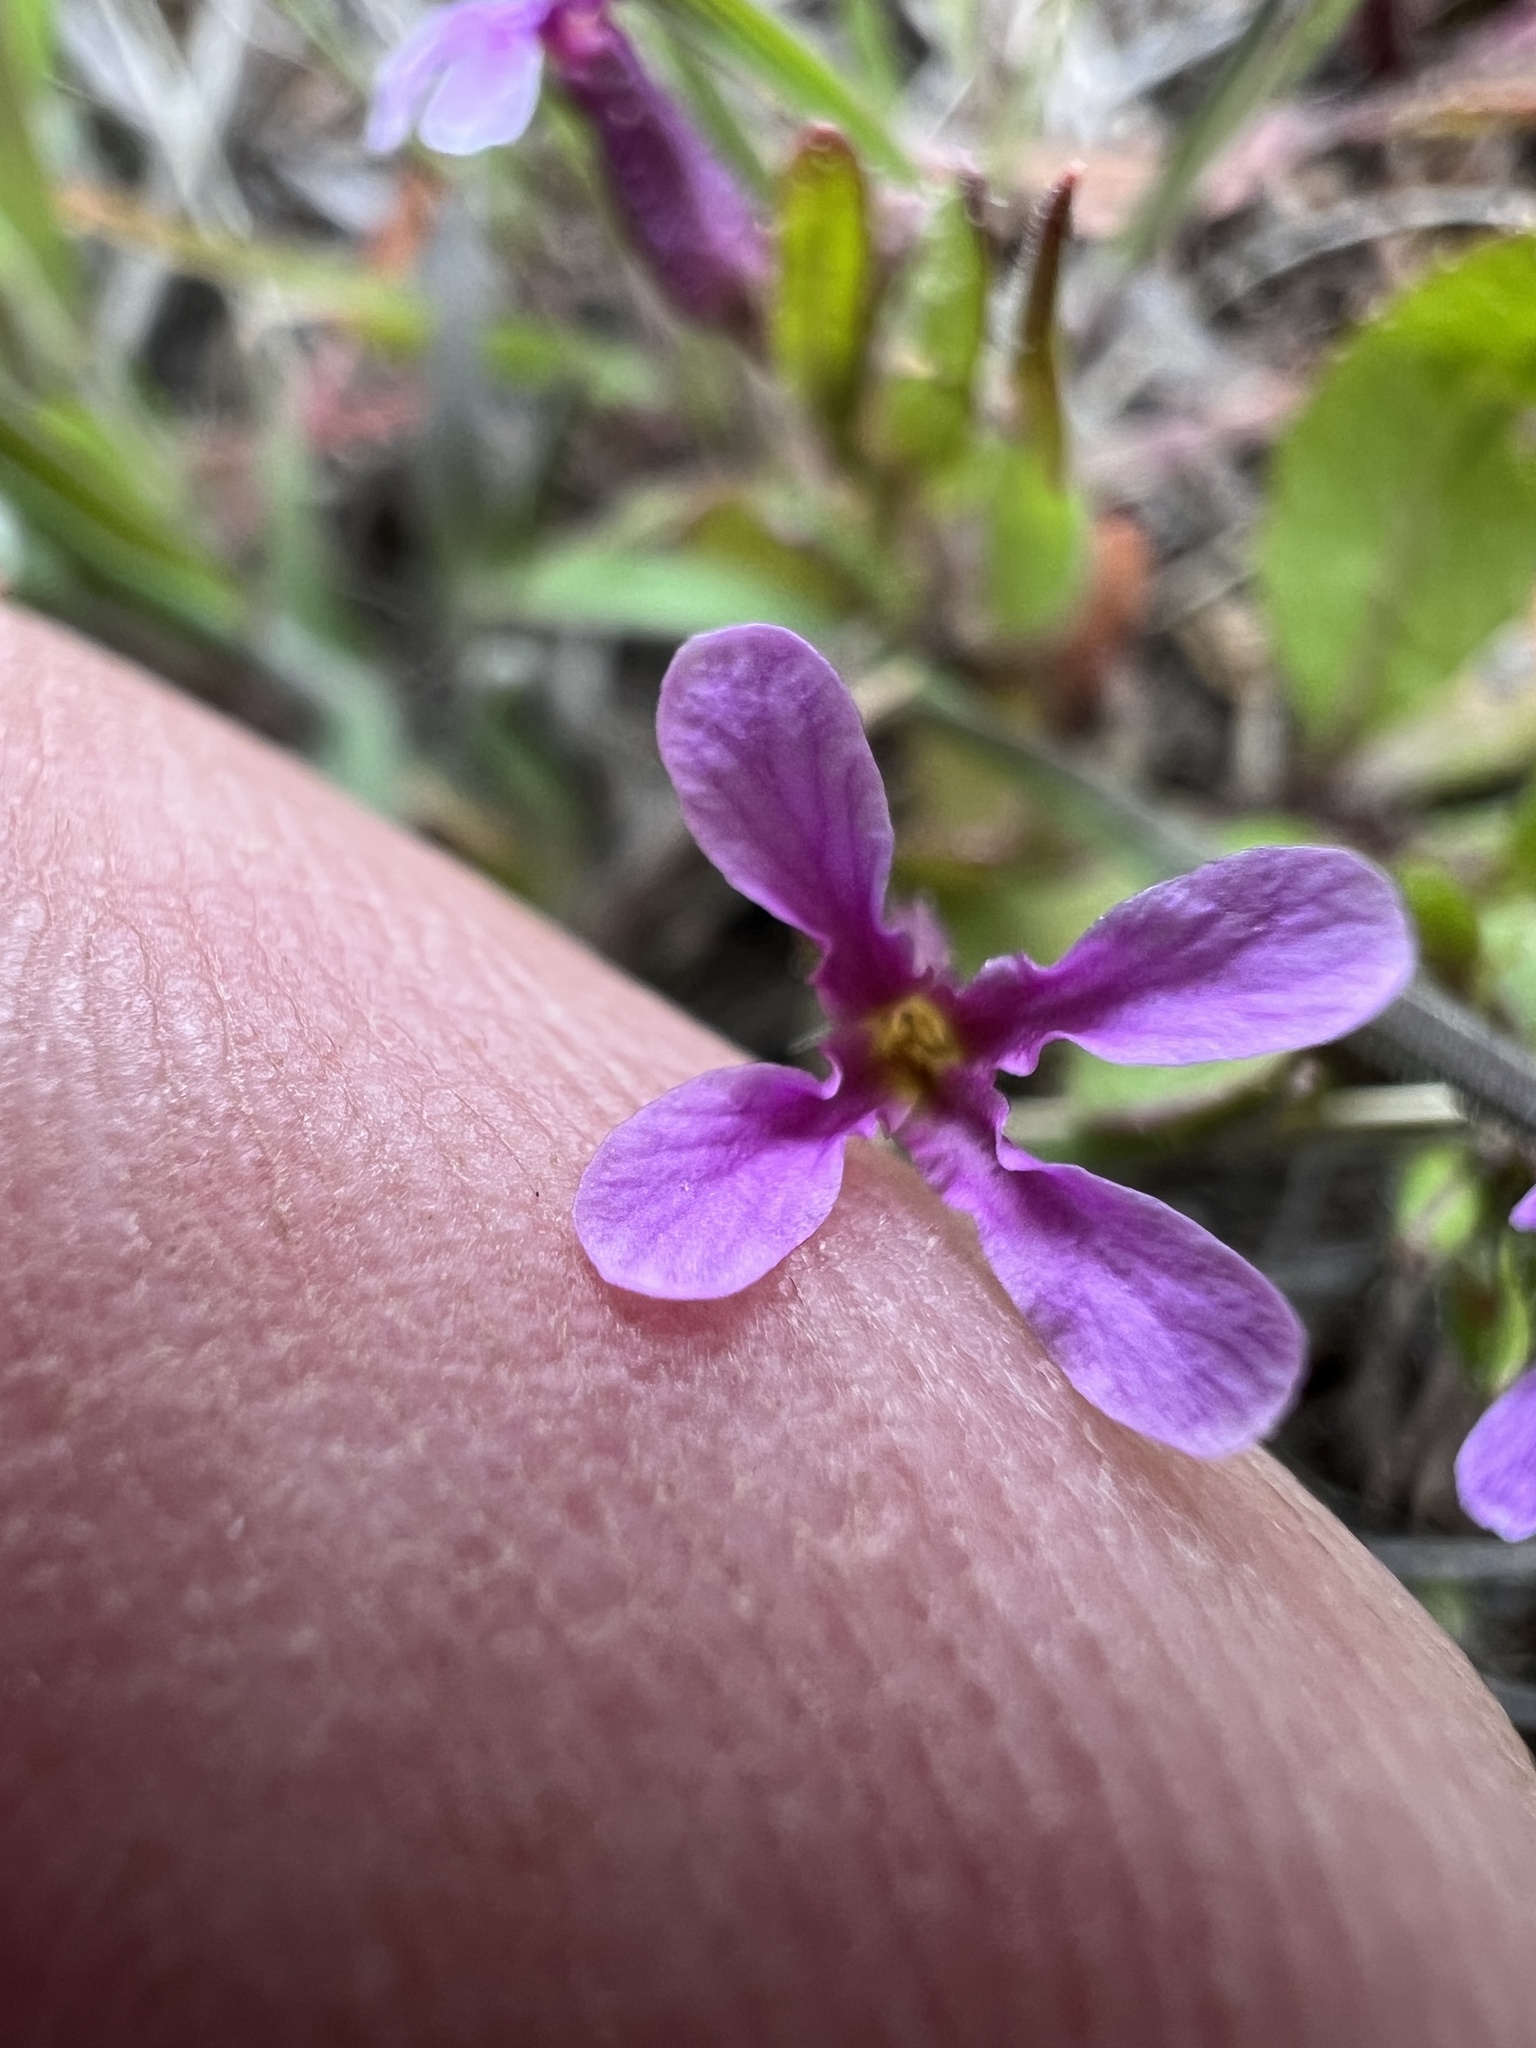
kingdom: Plantae
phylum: Tracheophyta
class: Magnoliopsida
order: Brassicales
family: Brassicaceae
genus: Chorispora
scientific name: Chorispora tenella
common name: Crossflower
